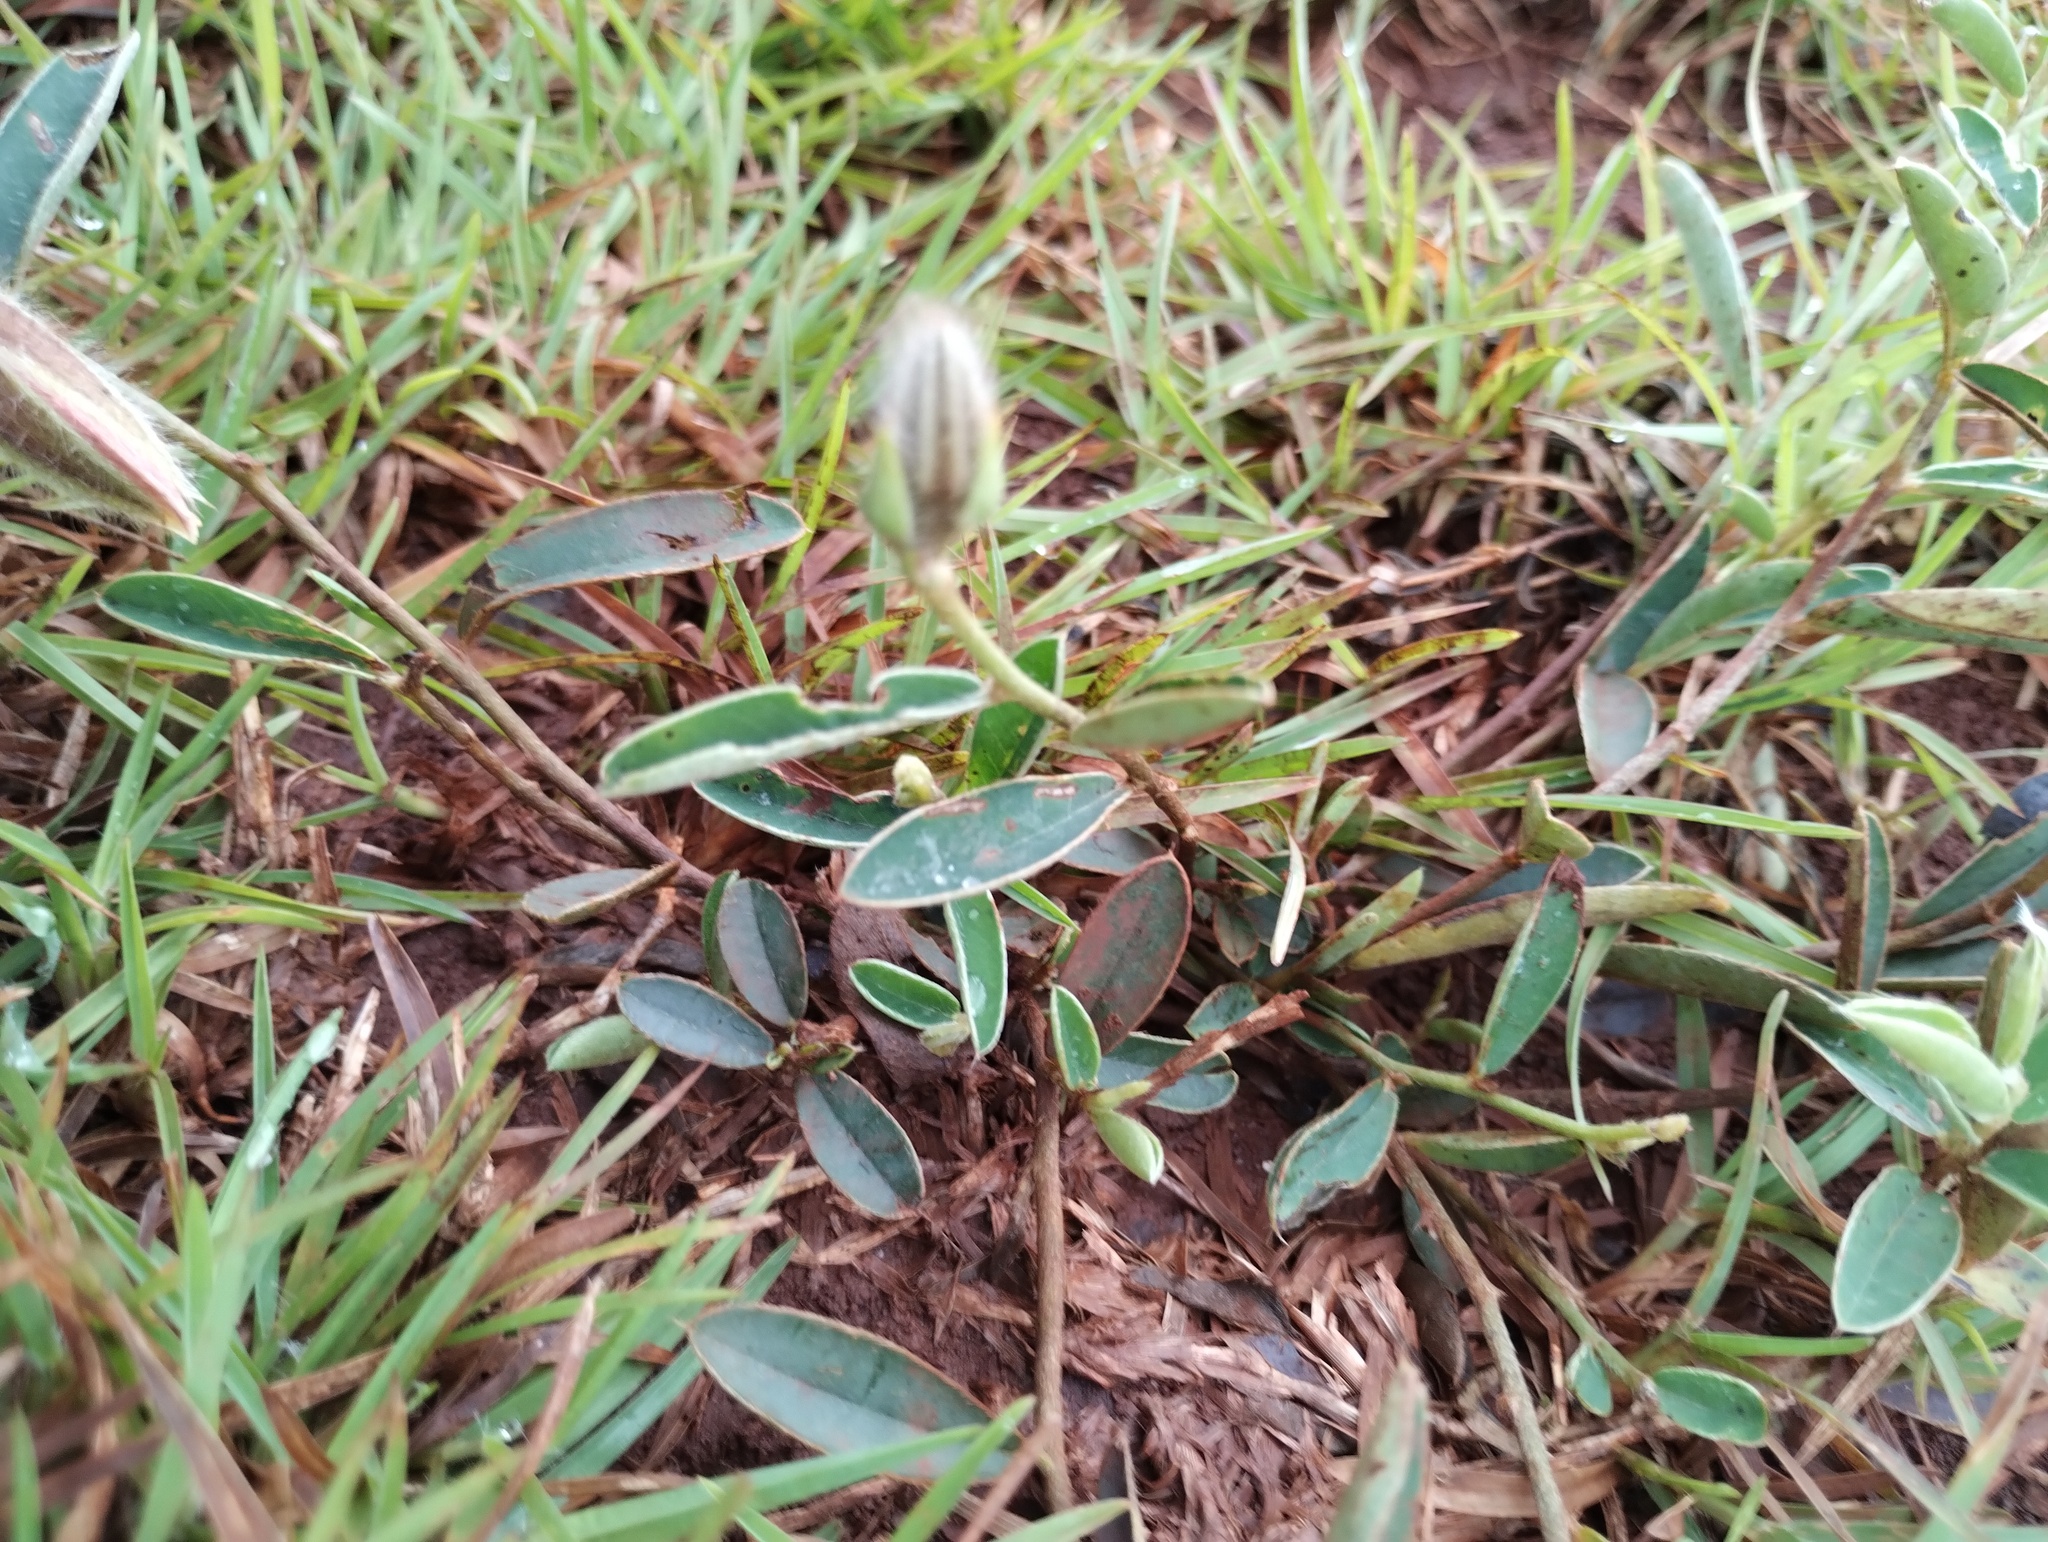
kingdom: Plantae
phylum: Tracheophyta
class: Magnoliopsida
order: Fabales
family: Fabaceae
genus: Crotalaria
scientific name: Crotalaria calycina
